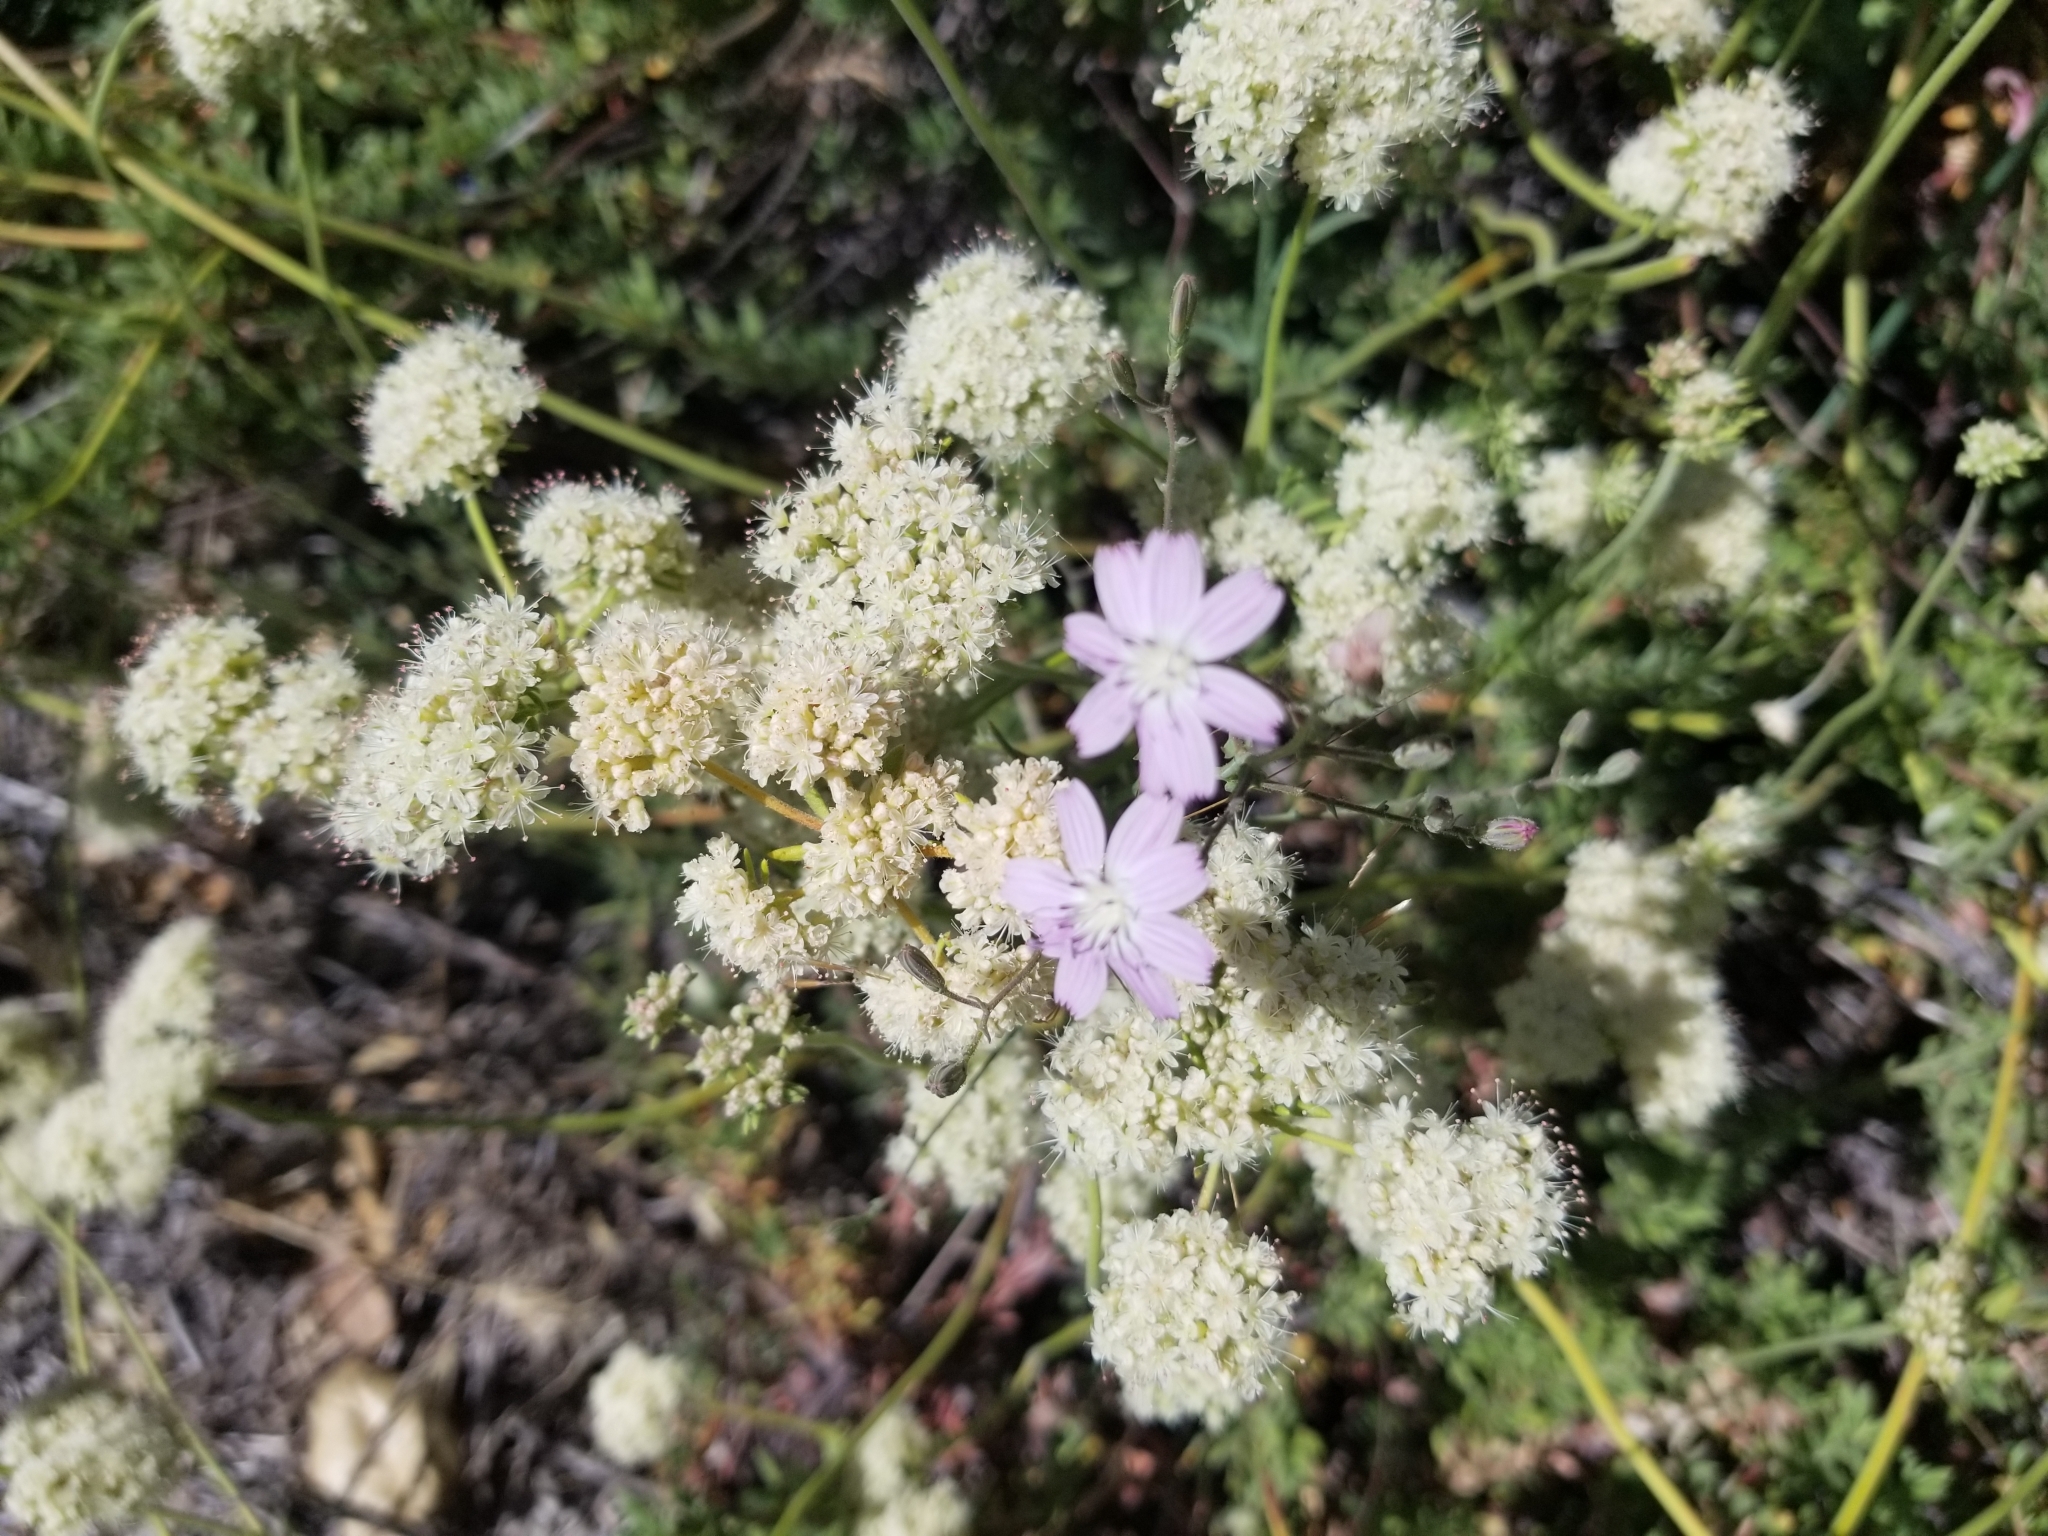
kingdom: Plantae
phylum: Tracheophyta
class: Magnoliopsida
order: Asterales
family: Asteraceae
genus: Stephanomeria
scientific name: Stephanomeria exigua
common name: Small wirelettuce
